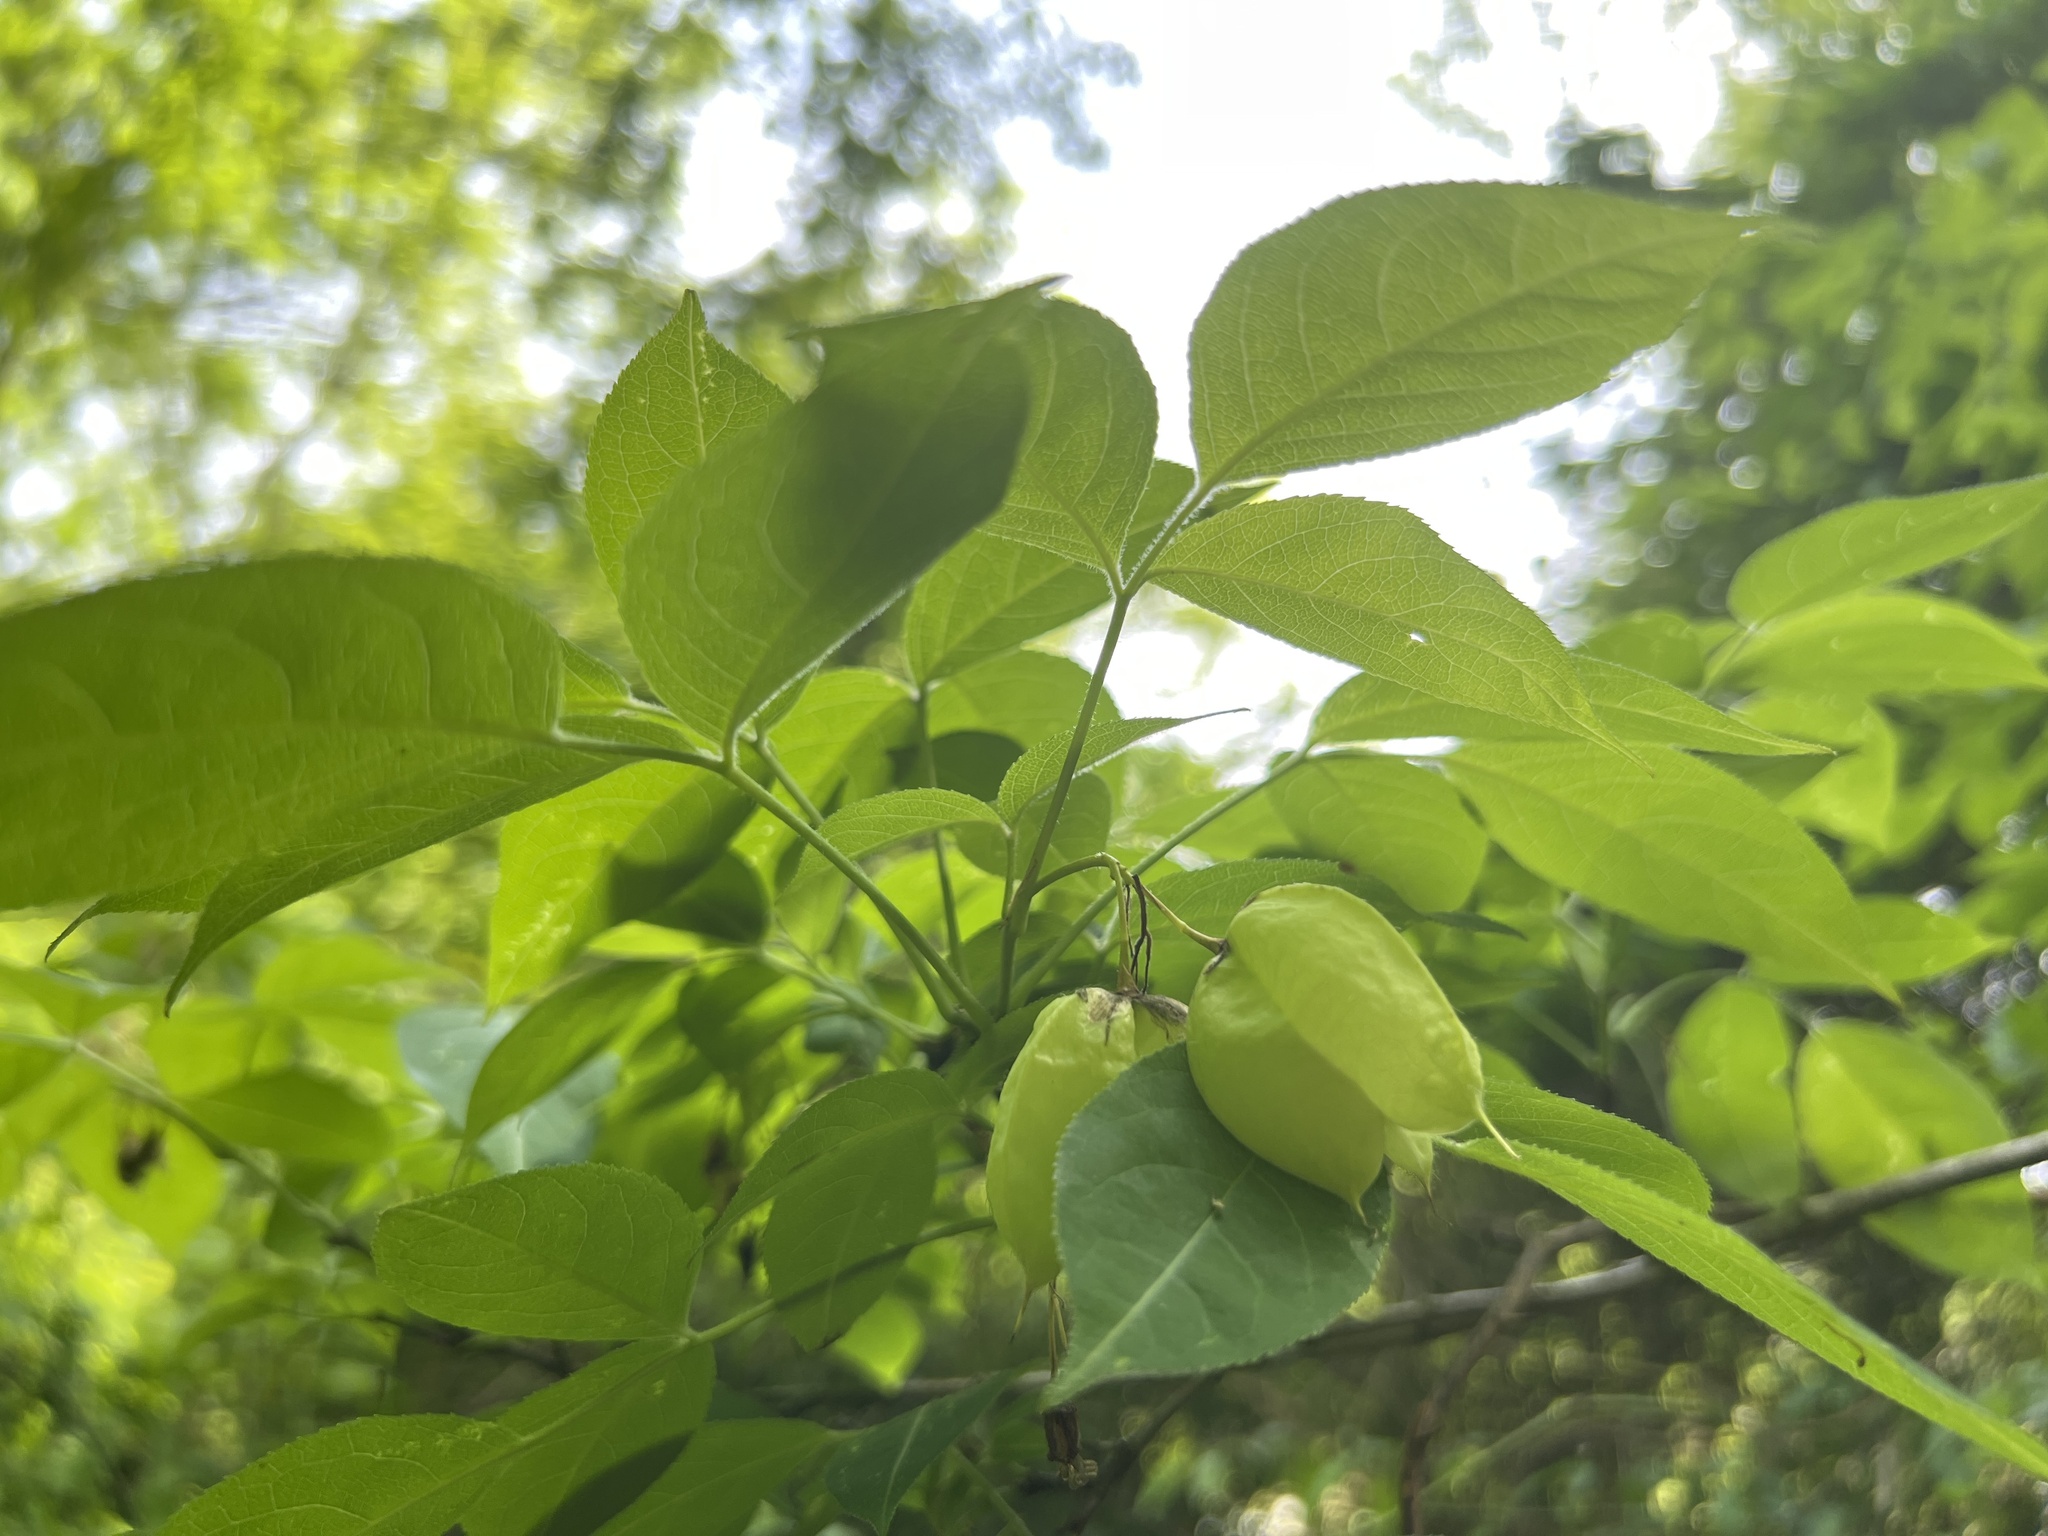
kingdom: Plantae
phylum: Tracheophyta
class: Magnoliopsida
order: Crossosomatales
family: Staphyleaceae
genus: Staphylea
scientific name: Staphylea trifolia
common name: American bladdernut
